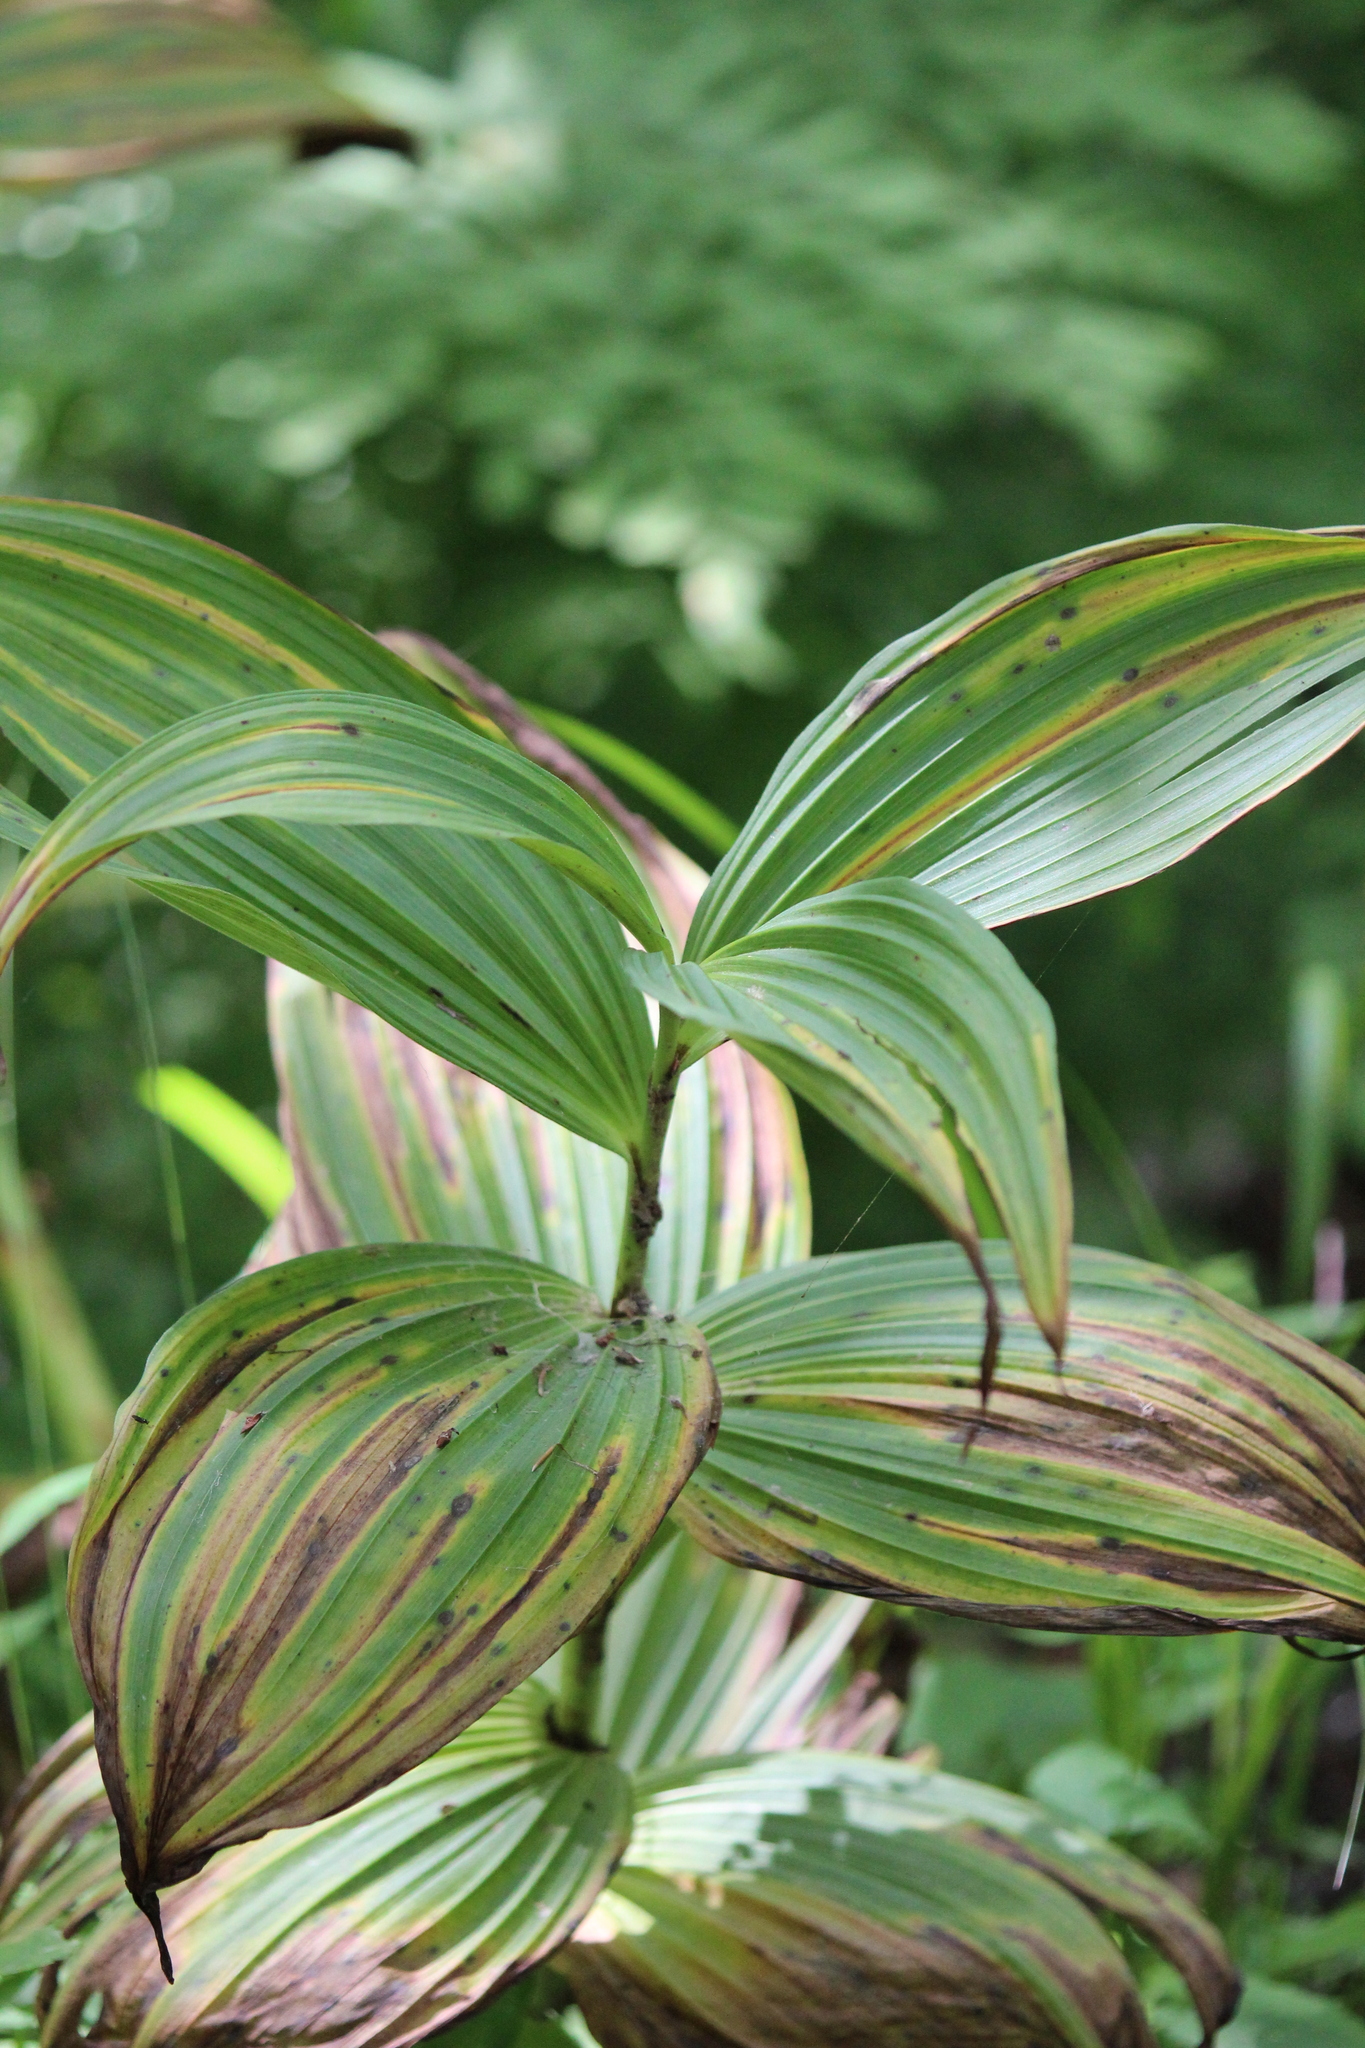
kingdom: Plantae
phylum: Tracheophyta
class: Liliopsida
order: Liliales
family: Melanthiaceae
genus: Veratrum
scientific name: Veratrum viride
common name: American false hellebore
